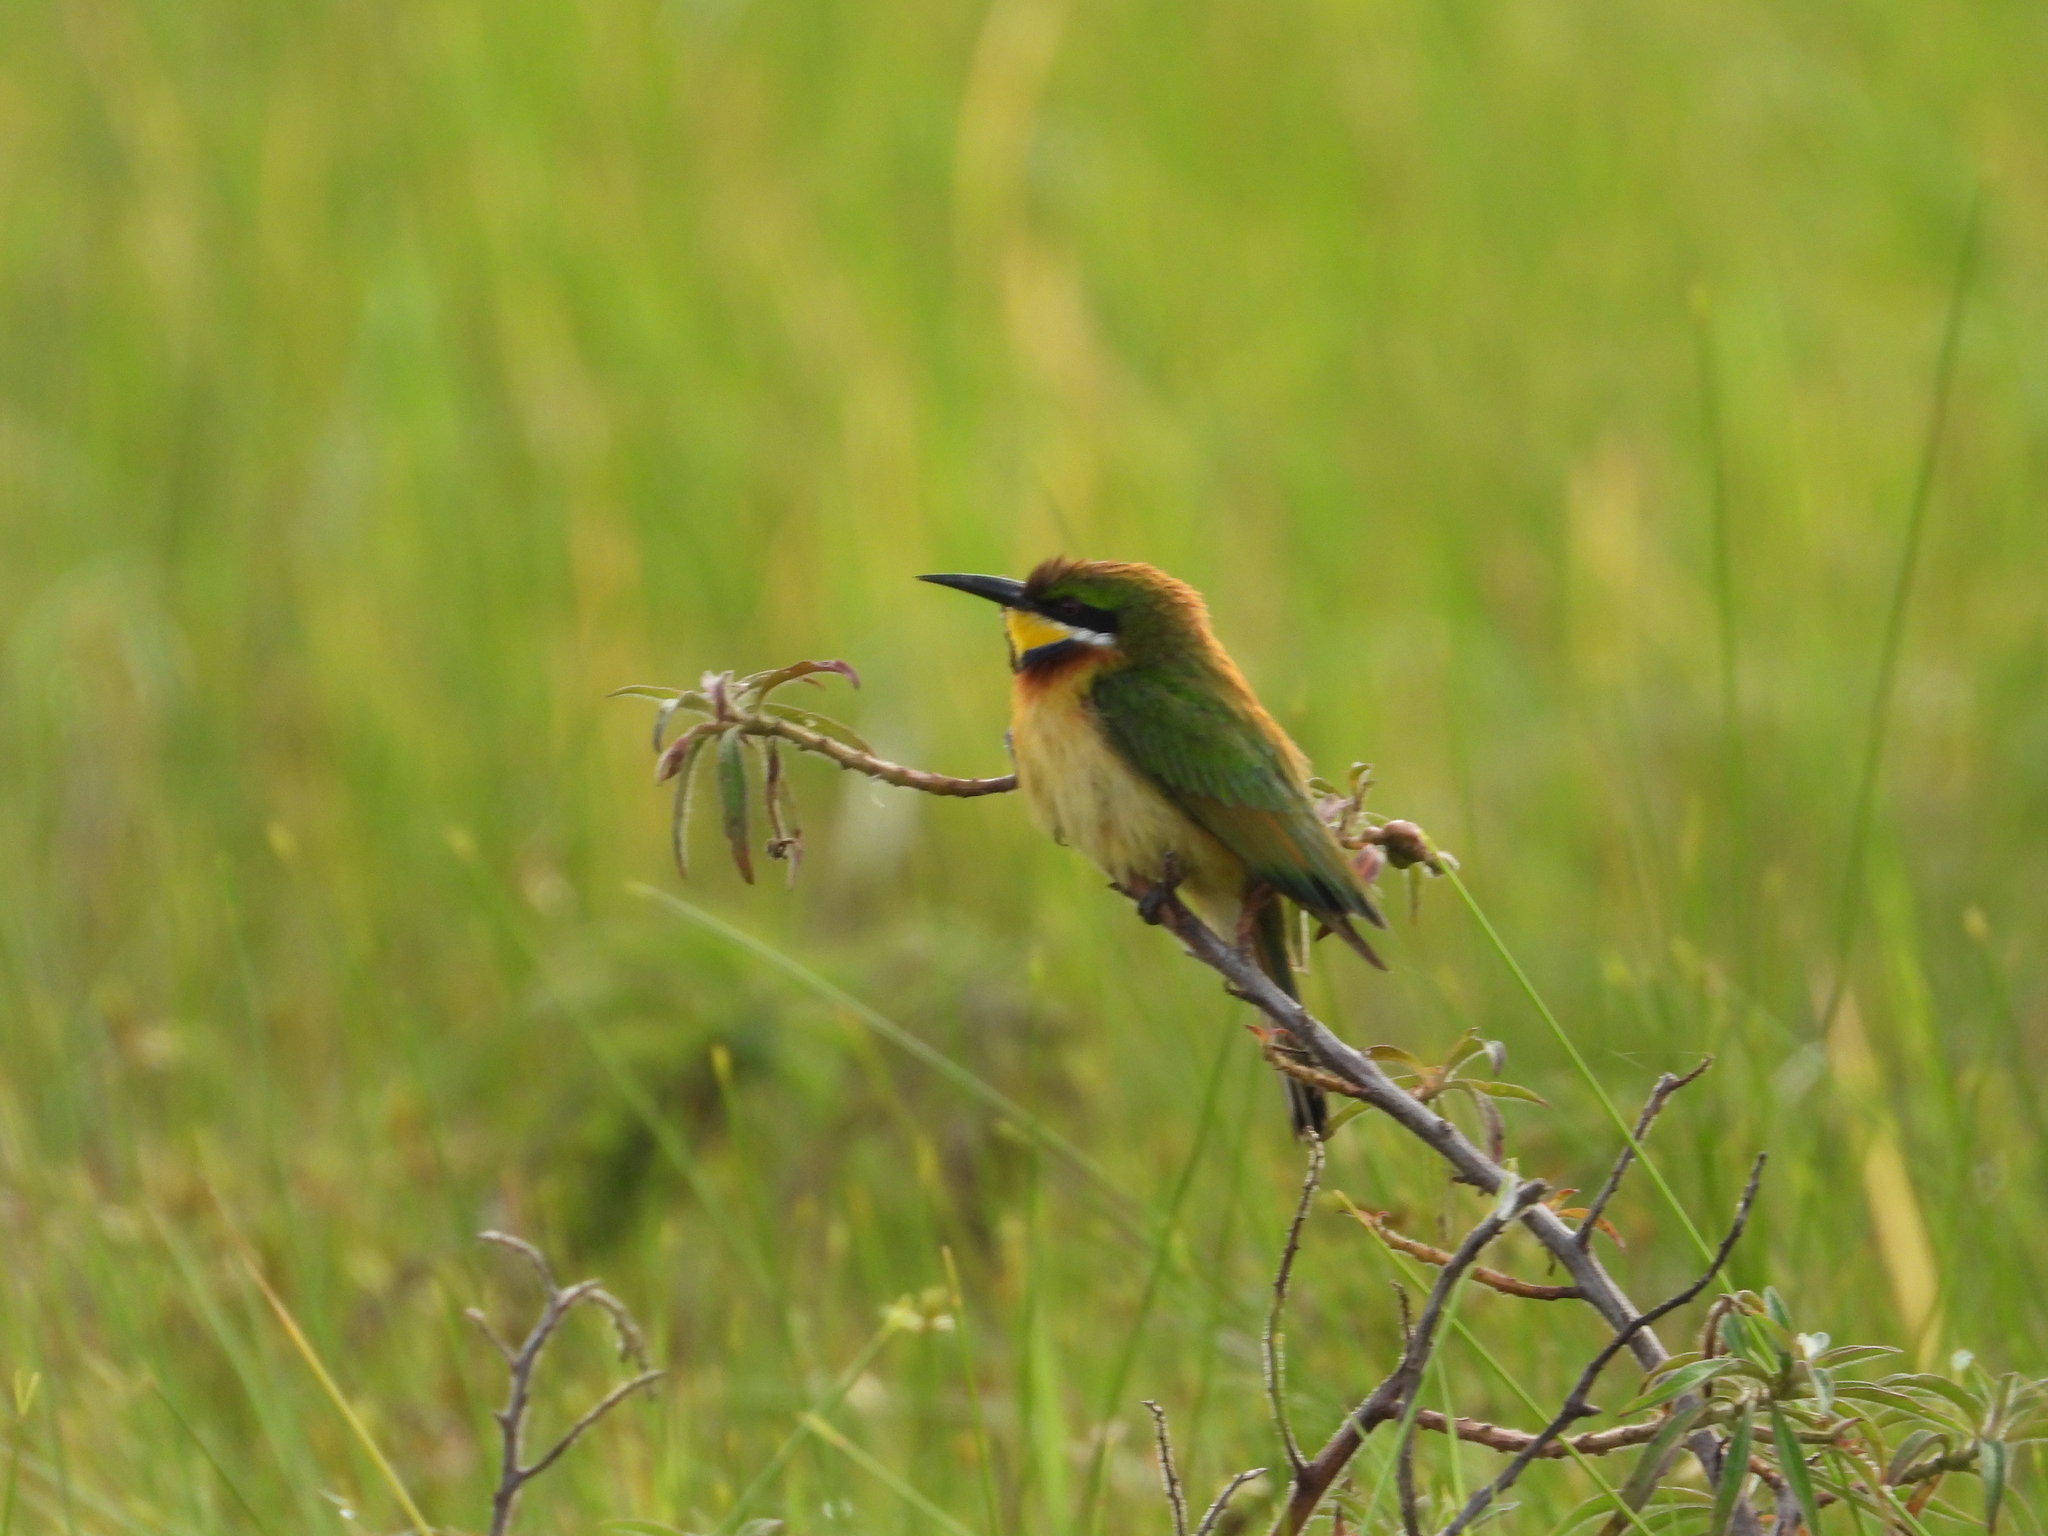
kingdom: Animalia
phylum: Chordata
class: Aves
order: Coraciiformes
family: Meropidae
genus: Merops
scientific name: Merops variegatus
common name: Blue-breasted bee-eater
